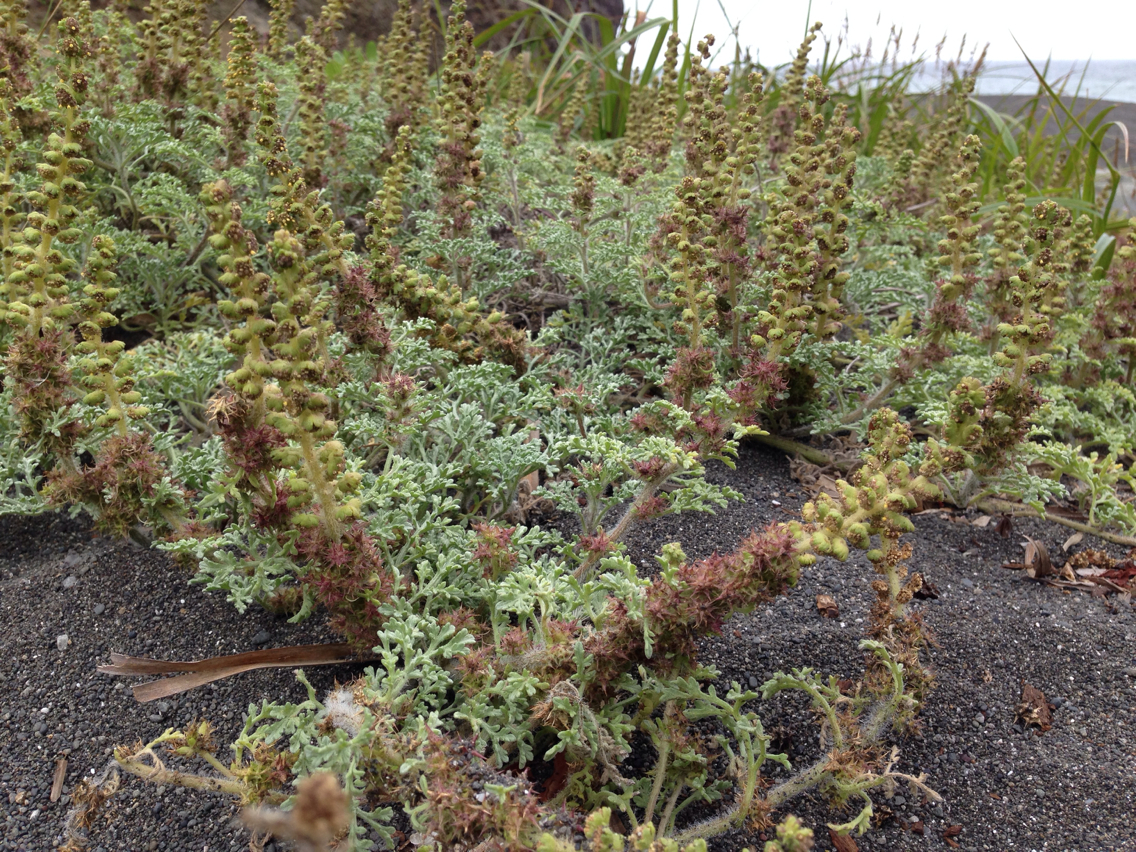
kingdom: Plantae
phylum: Tracheophyta
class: Magnoliopsida
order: Asterales
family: Asteraceae
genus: Ambrosia
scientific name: Ambrosia chamissonis
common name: Beachbur
